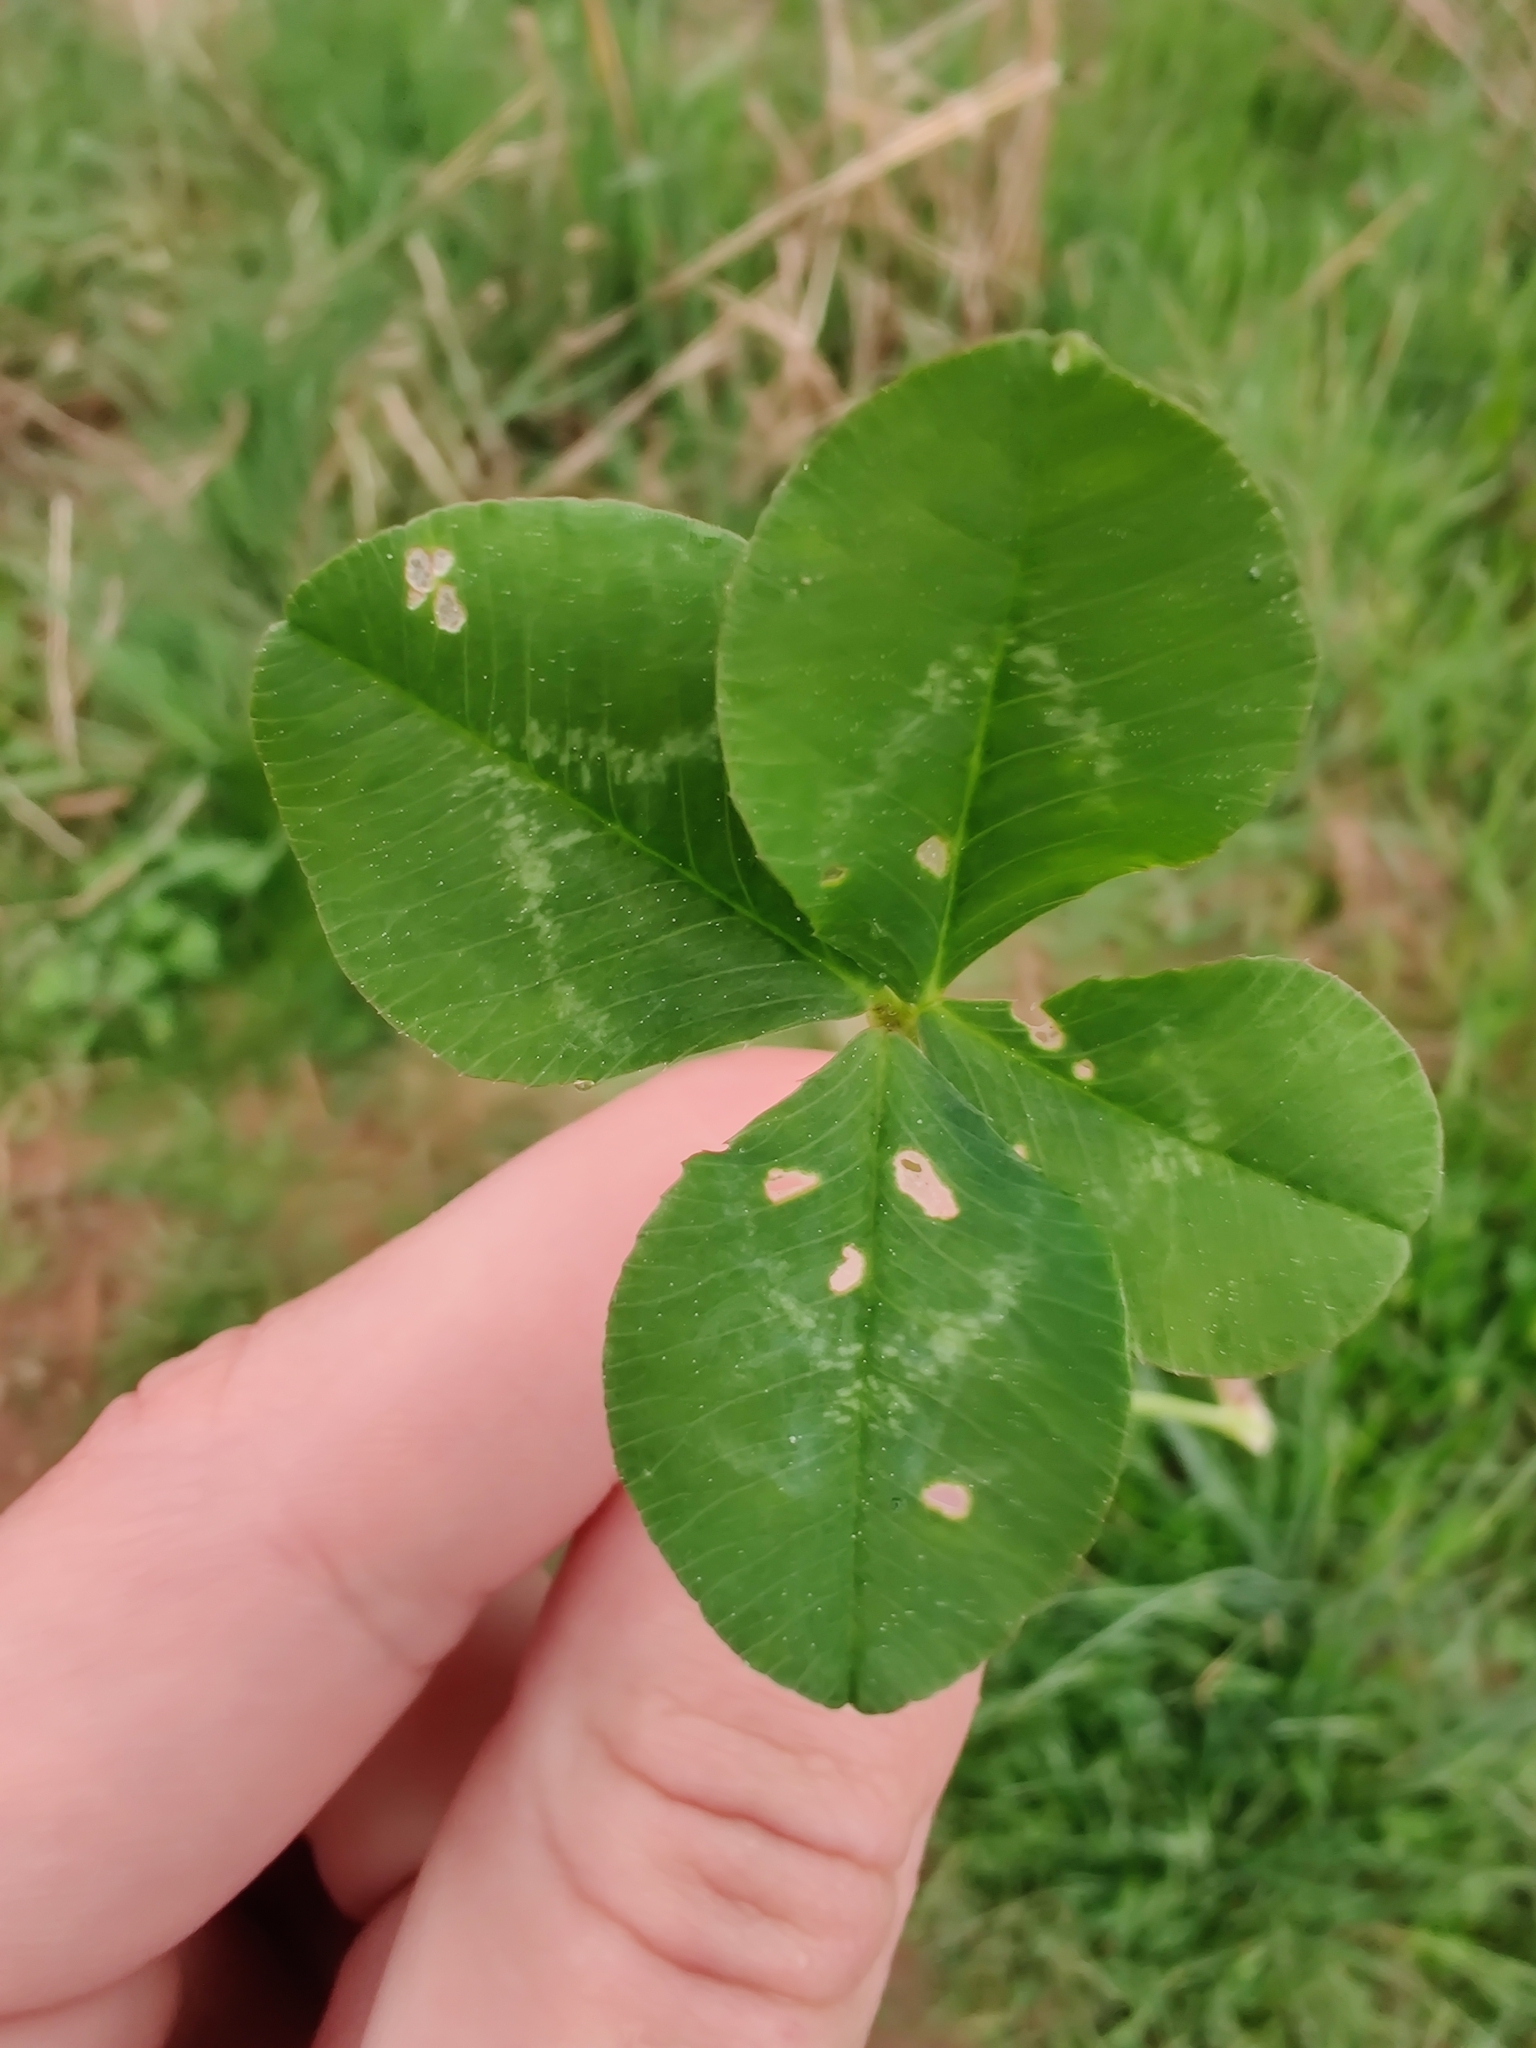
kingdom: Plantae
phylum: Tracheophyta
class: Magnoliopsida
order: Fabales
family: Fabaceae
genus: Trifolium
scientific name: Trifolium repens
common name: White clover
